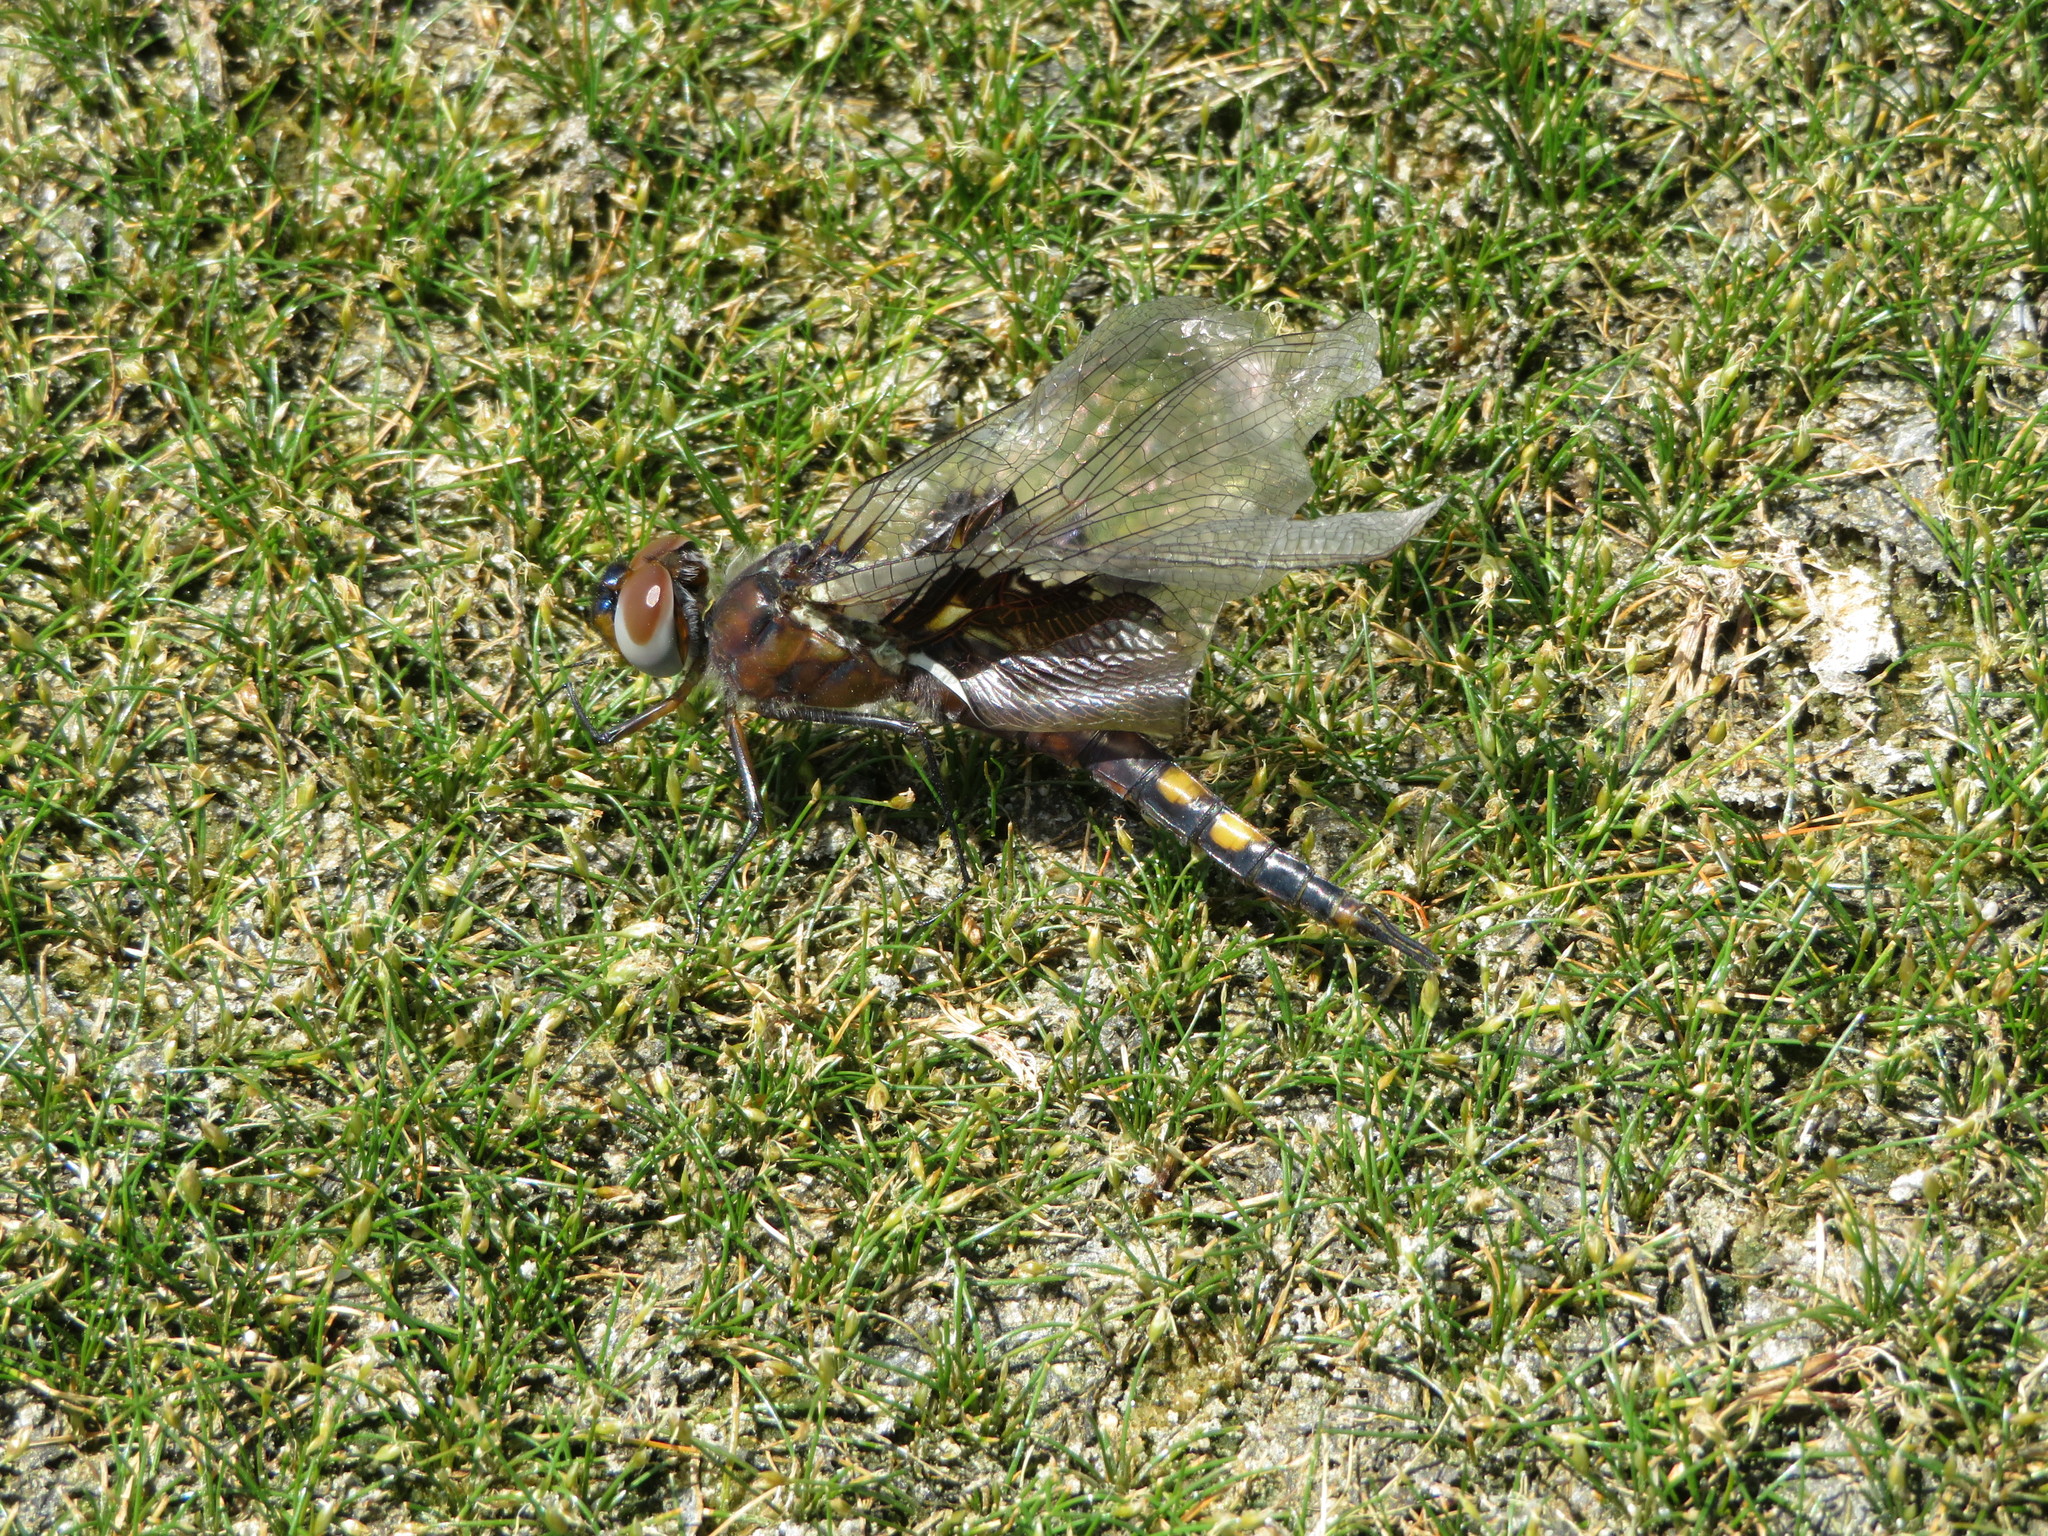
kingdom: Animalia
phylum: Arthropoda
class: Insecta
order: Odonata
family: Libellulidae
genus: Tramea
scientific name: Tramea lacerata
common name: Black saddlebags
